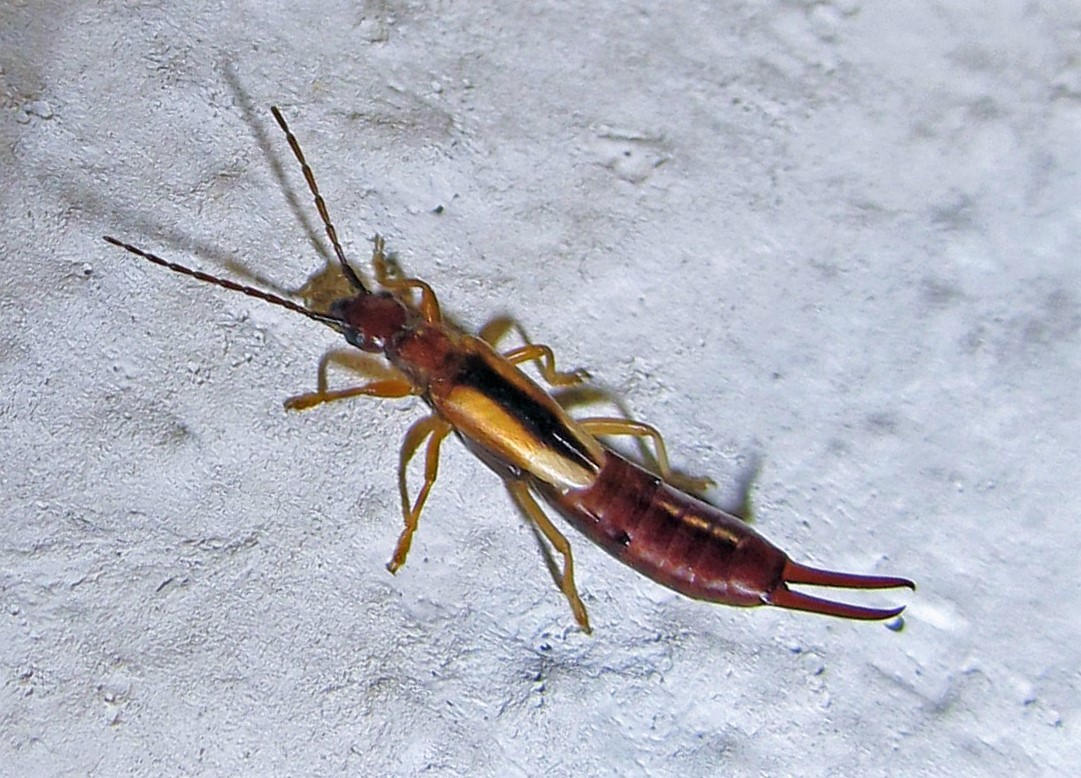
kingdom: Animalia
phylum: Arthropoda
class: Insecta
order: Dermaptera
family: Forficulidae
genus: Doru
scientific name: Doru
